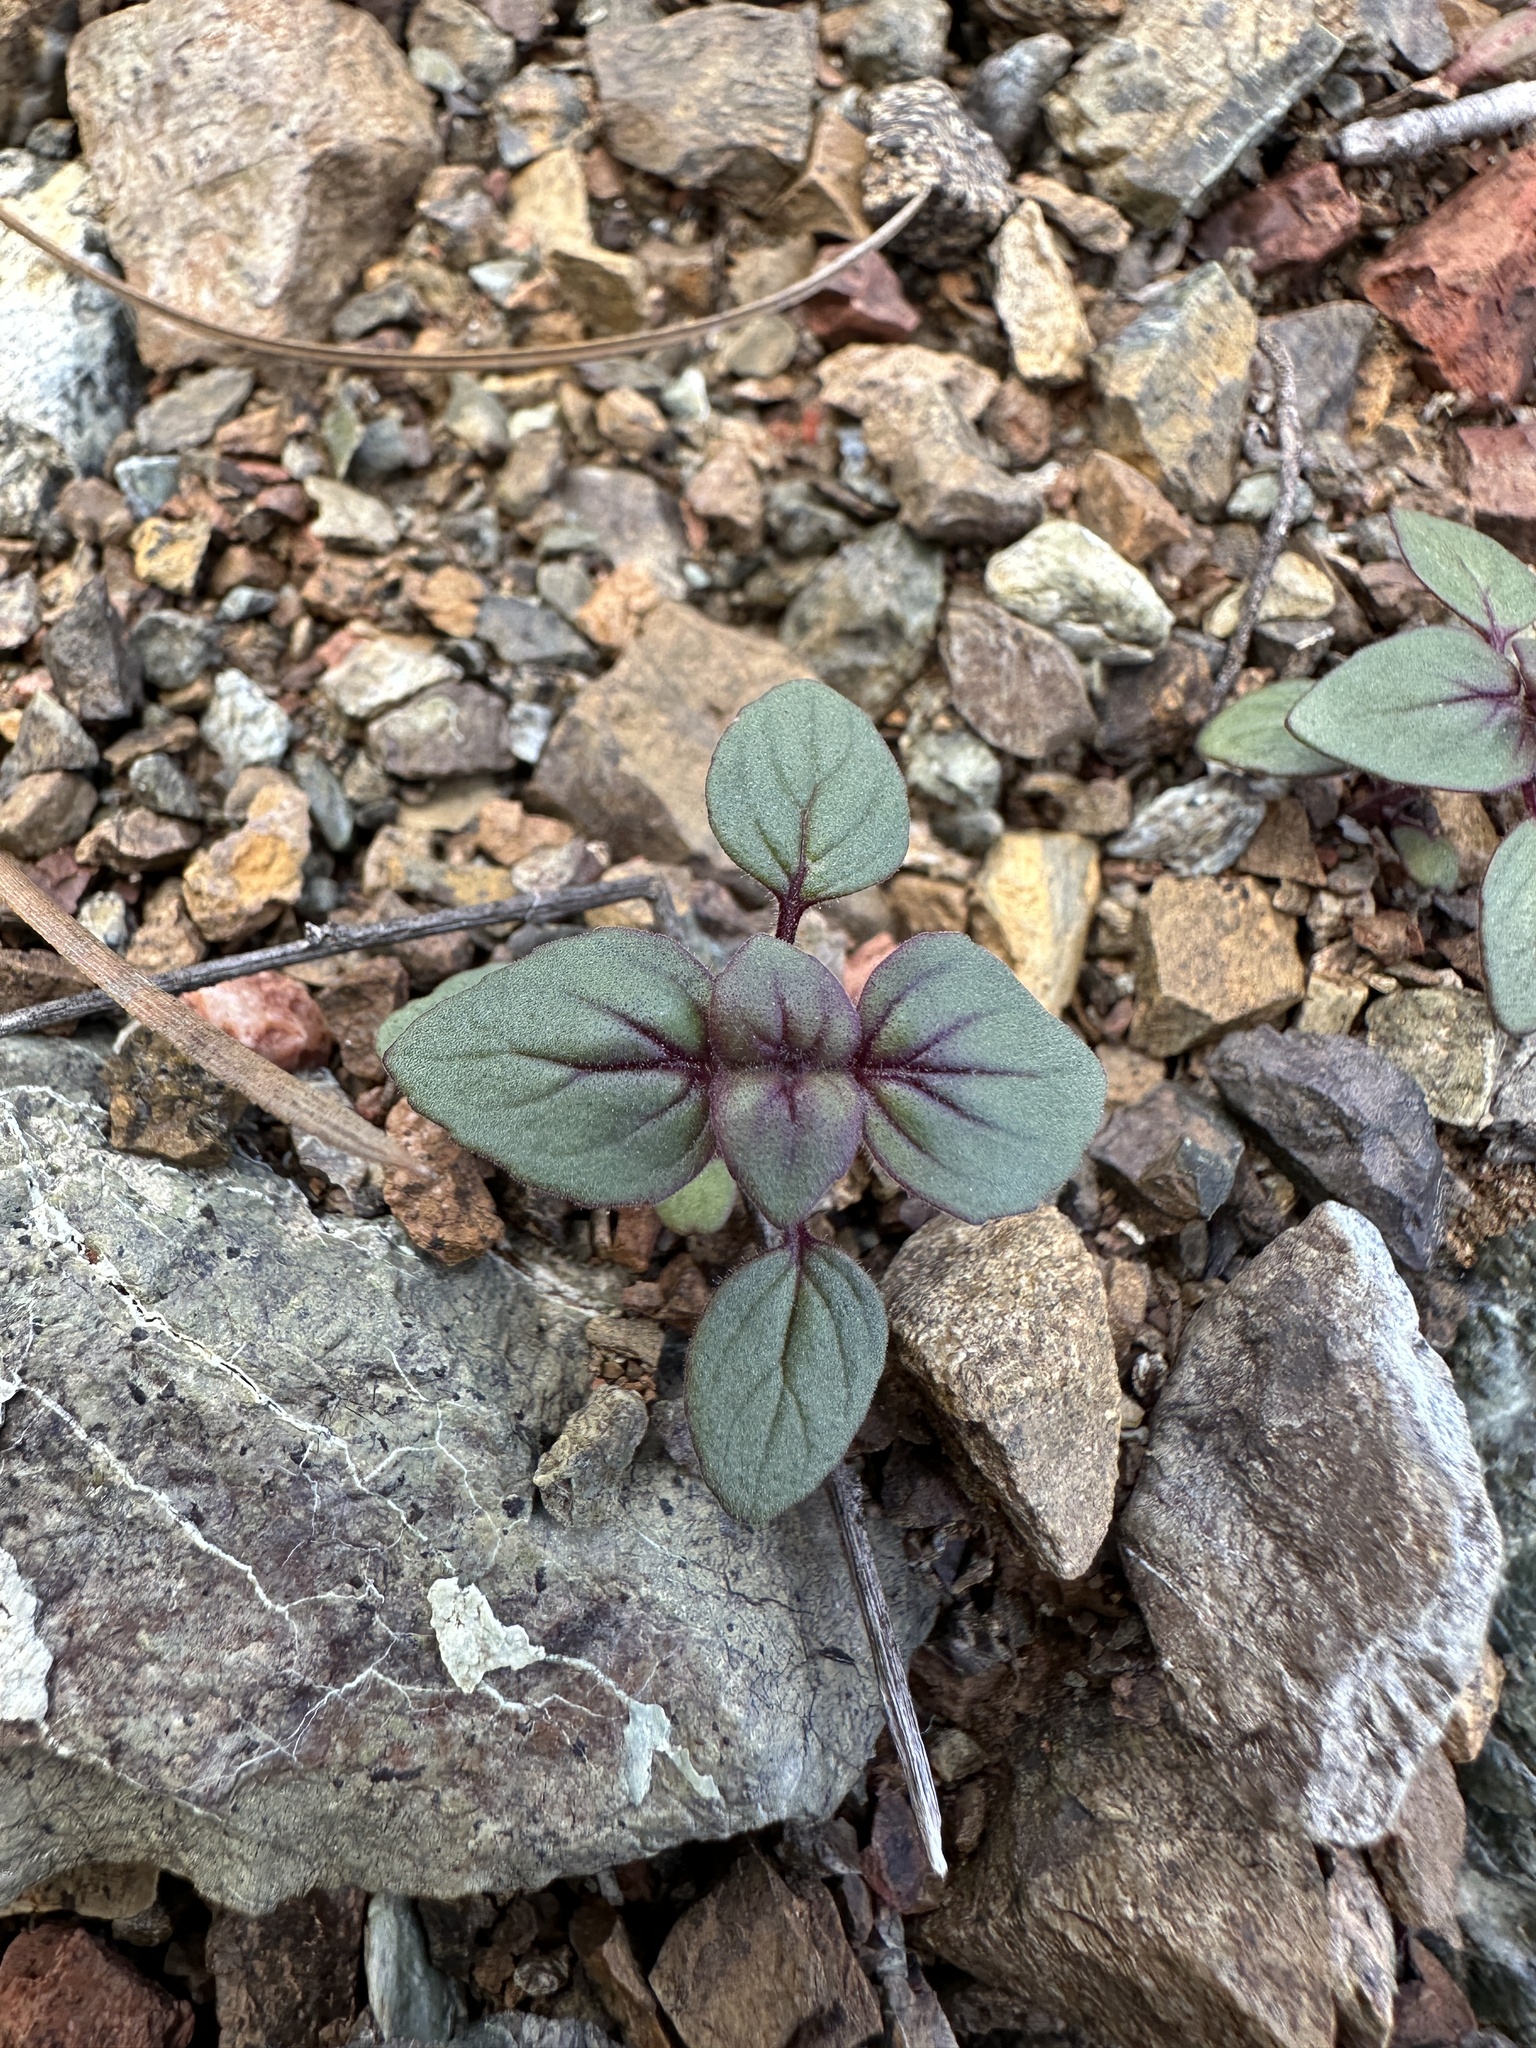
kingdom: Plantae
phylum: Tracheophyta
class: Magnoliopsida
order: Lamiales
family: Lamiaceae
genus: Acanthomintha
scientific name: Acanthomintha lanceolata
